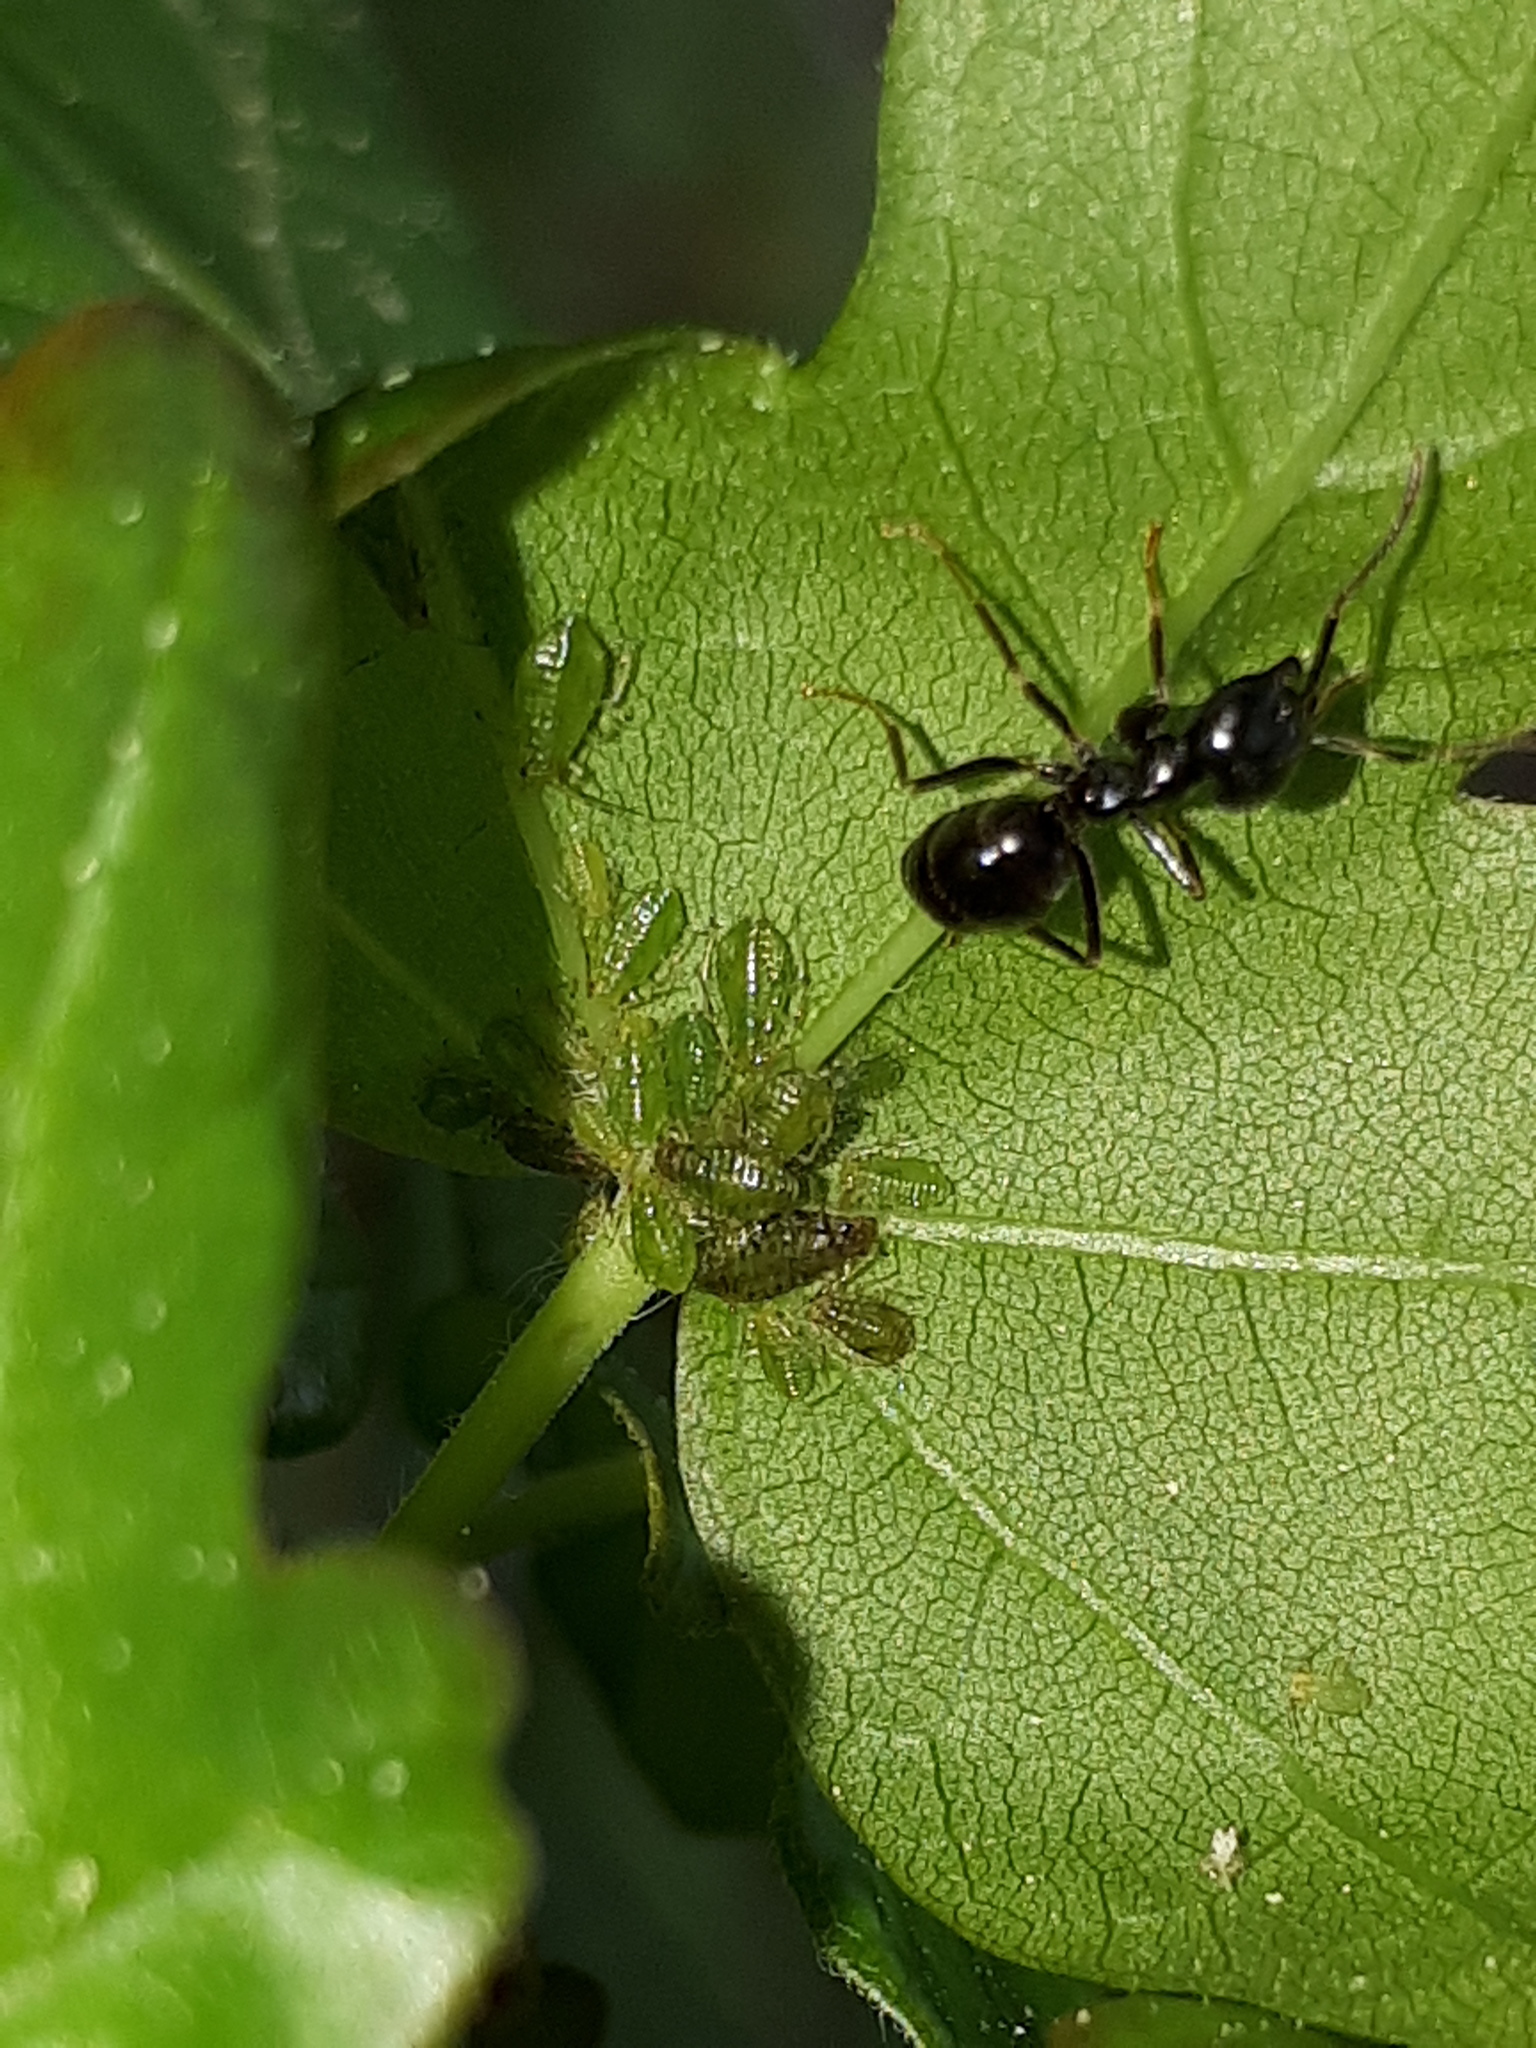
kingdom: Animalia
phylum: Arthropoda
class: Insecta
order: Hymenoptera
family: Formicidae
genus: Lasius
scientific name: Lasius fuliginosus
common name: Jet ant
